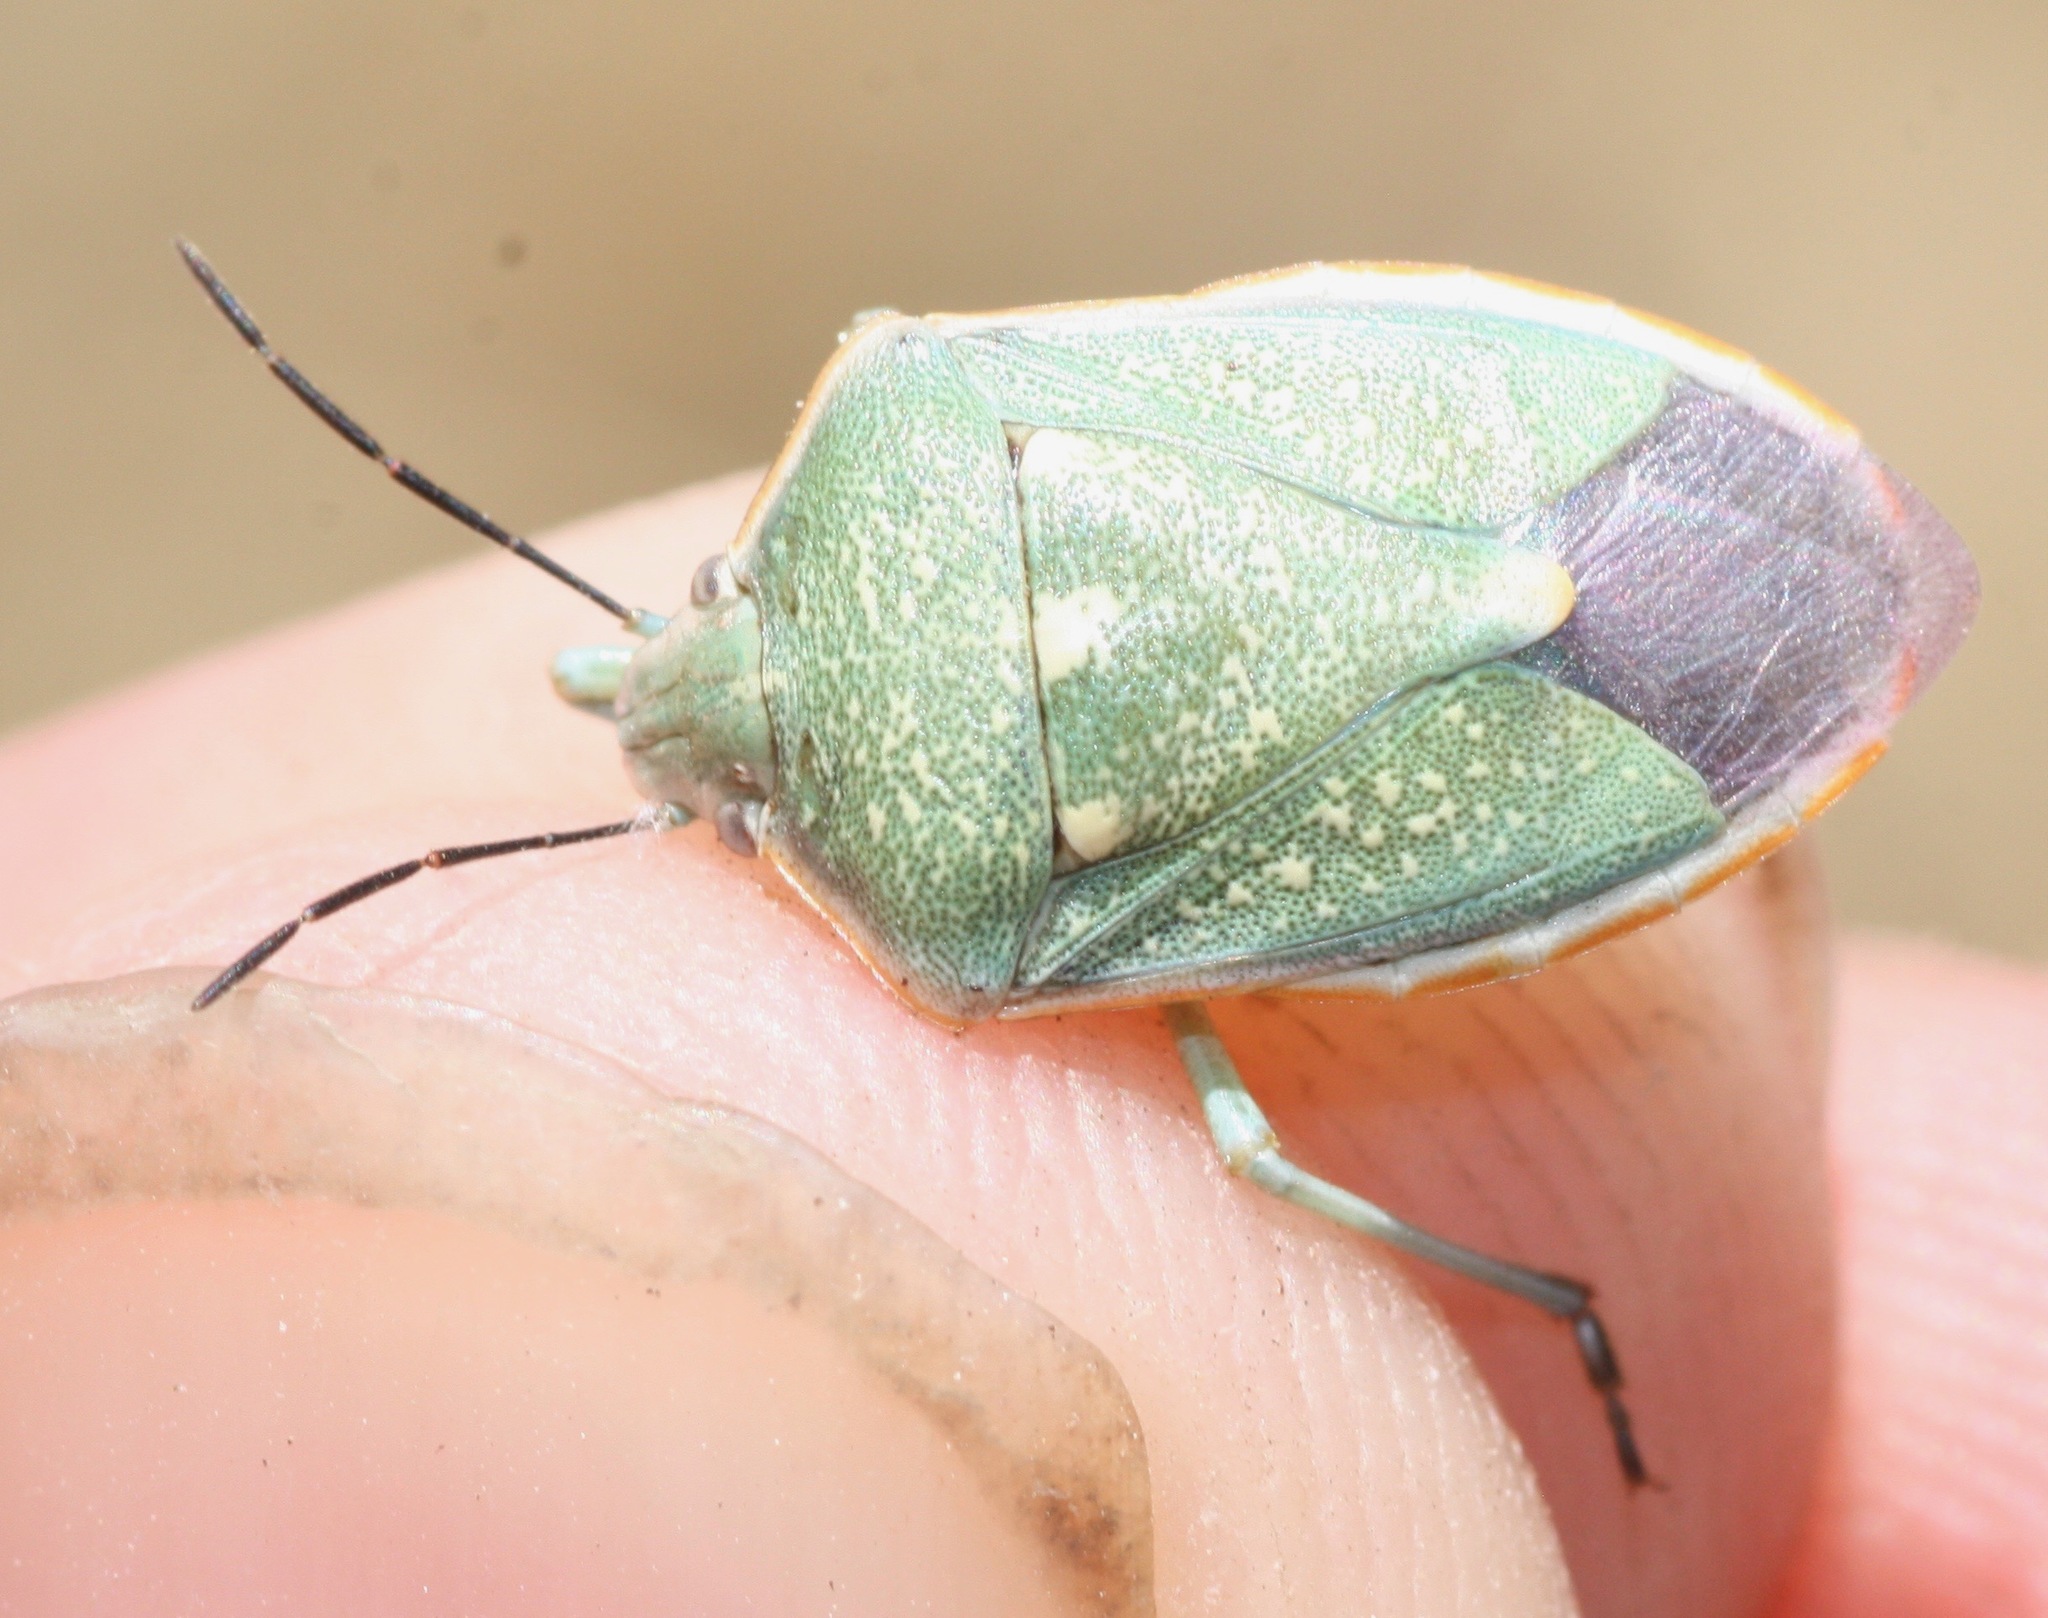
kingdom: Animalia
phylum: Arthropoda
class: Insecta
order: Hemiptera
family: Pentatomidae
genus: Chlorochroa
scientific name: Chlorochroa sayi
